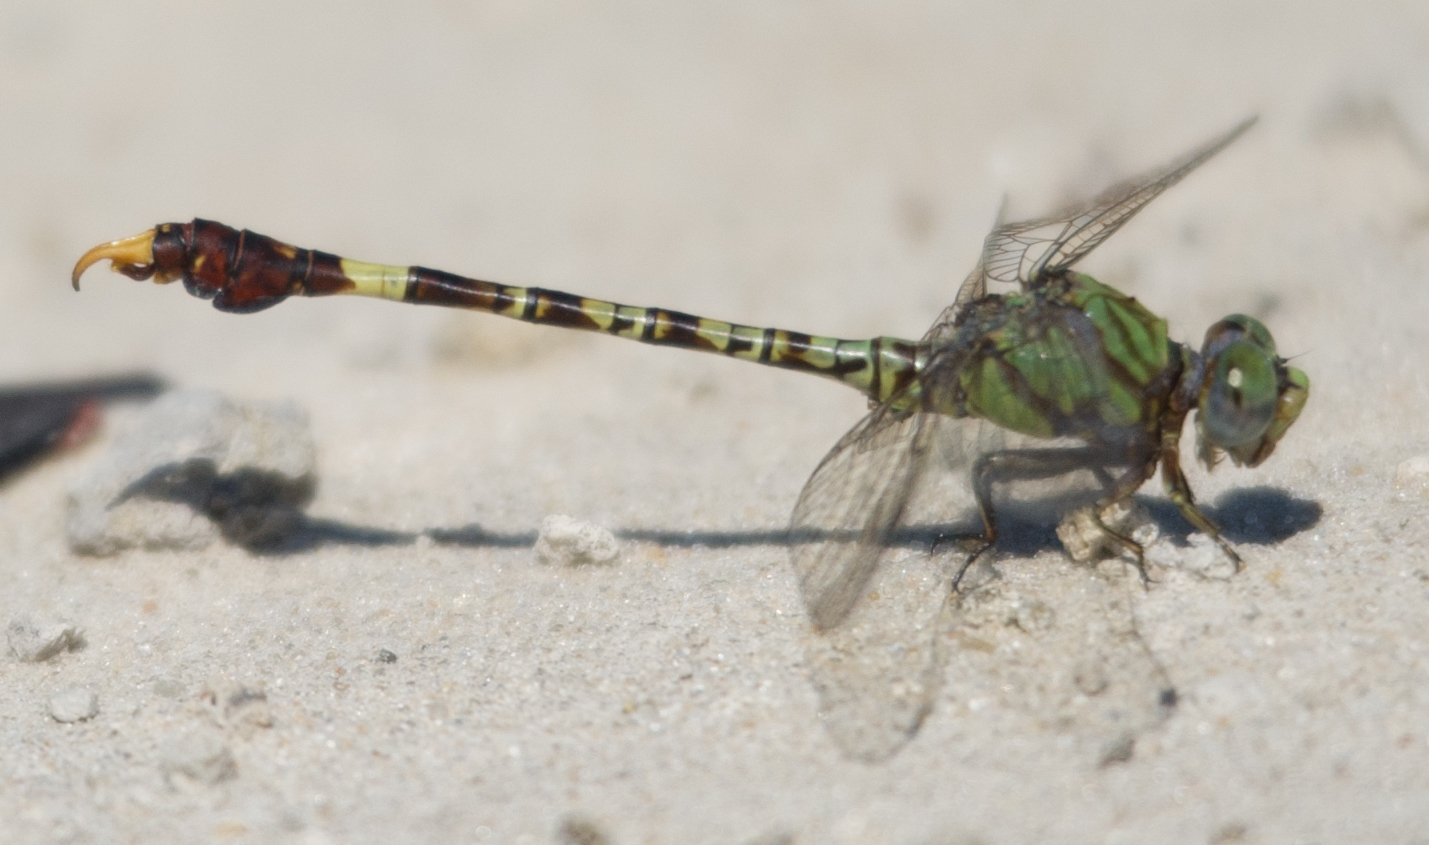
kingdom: Animalia
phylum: Arthropoda
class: Insecta
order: Odonata
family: Gomphidae
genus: Paragomphus
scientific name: Paragomphus genei
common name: Common hooktail
